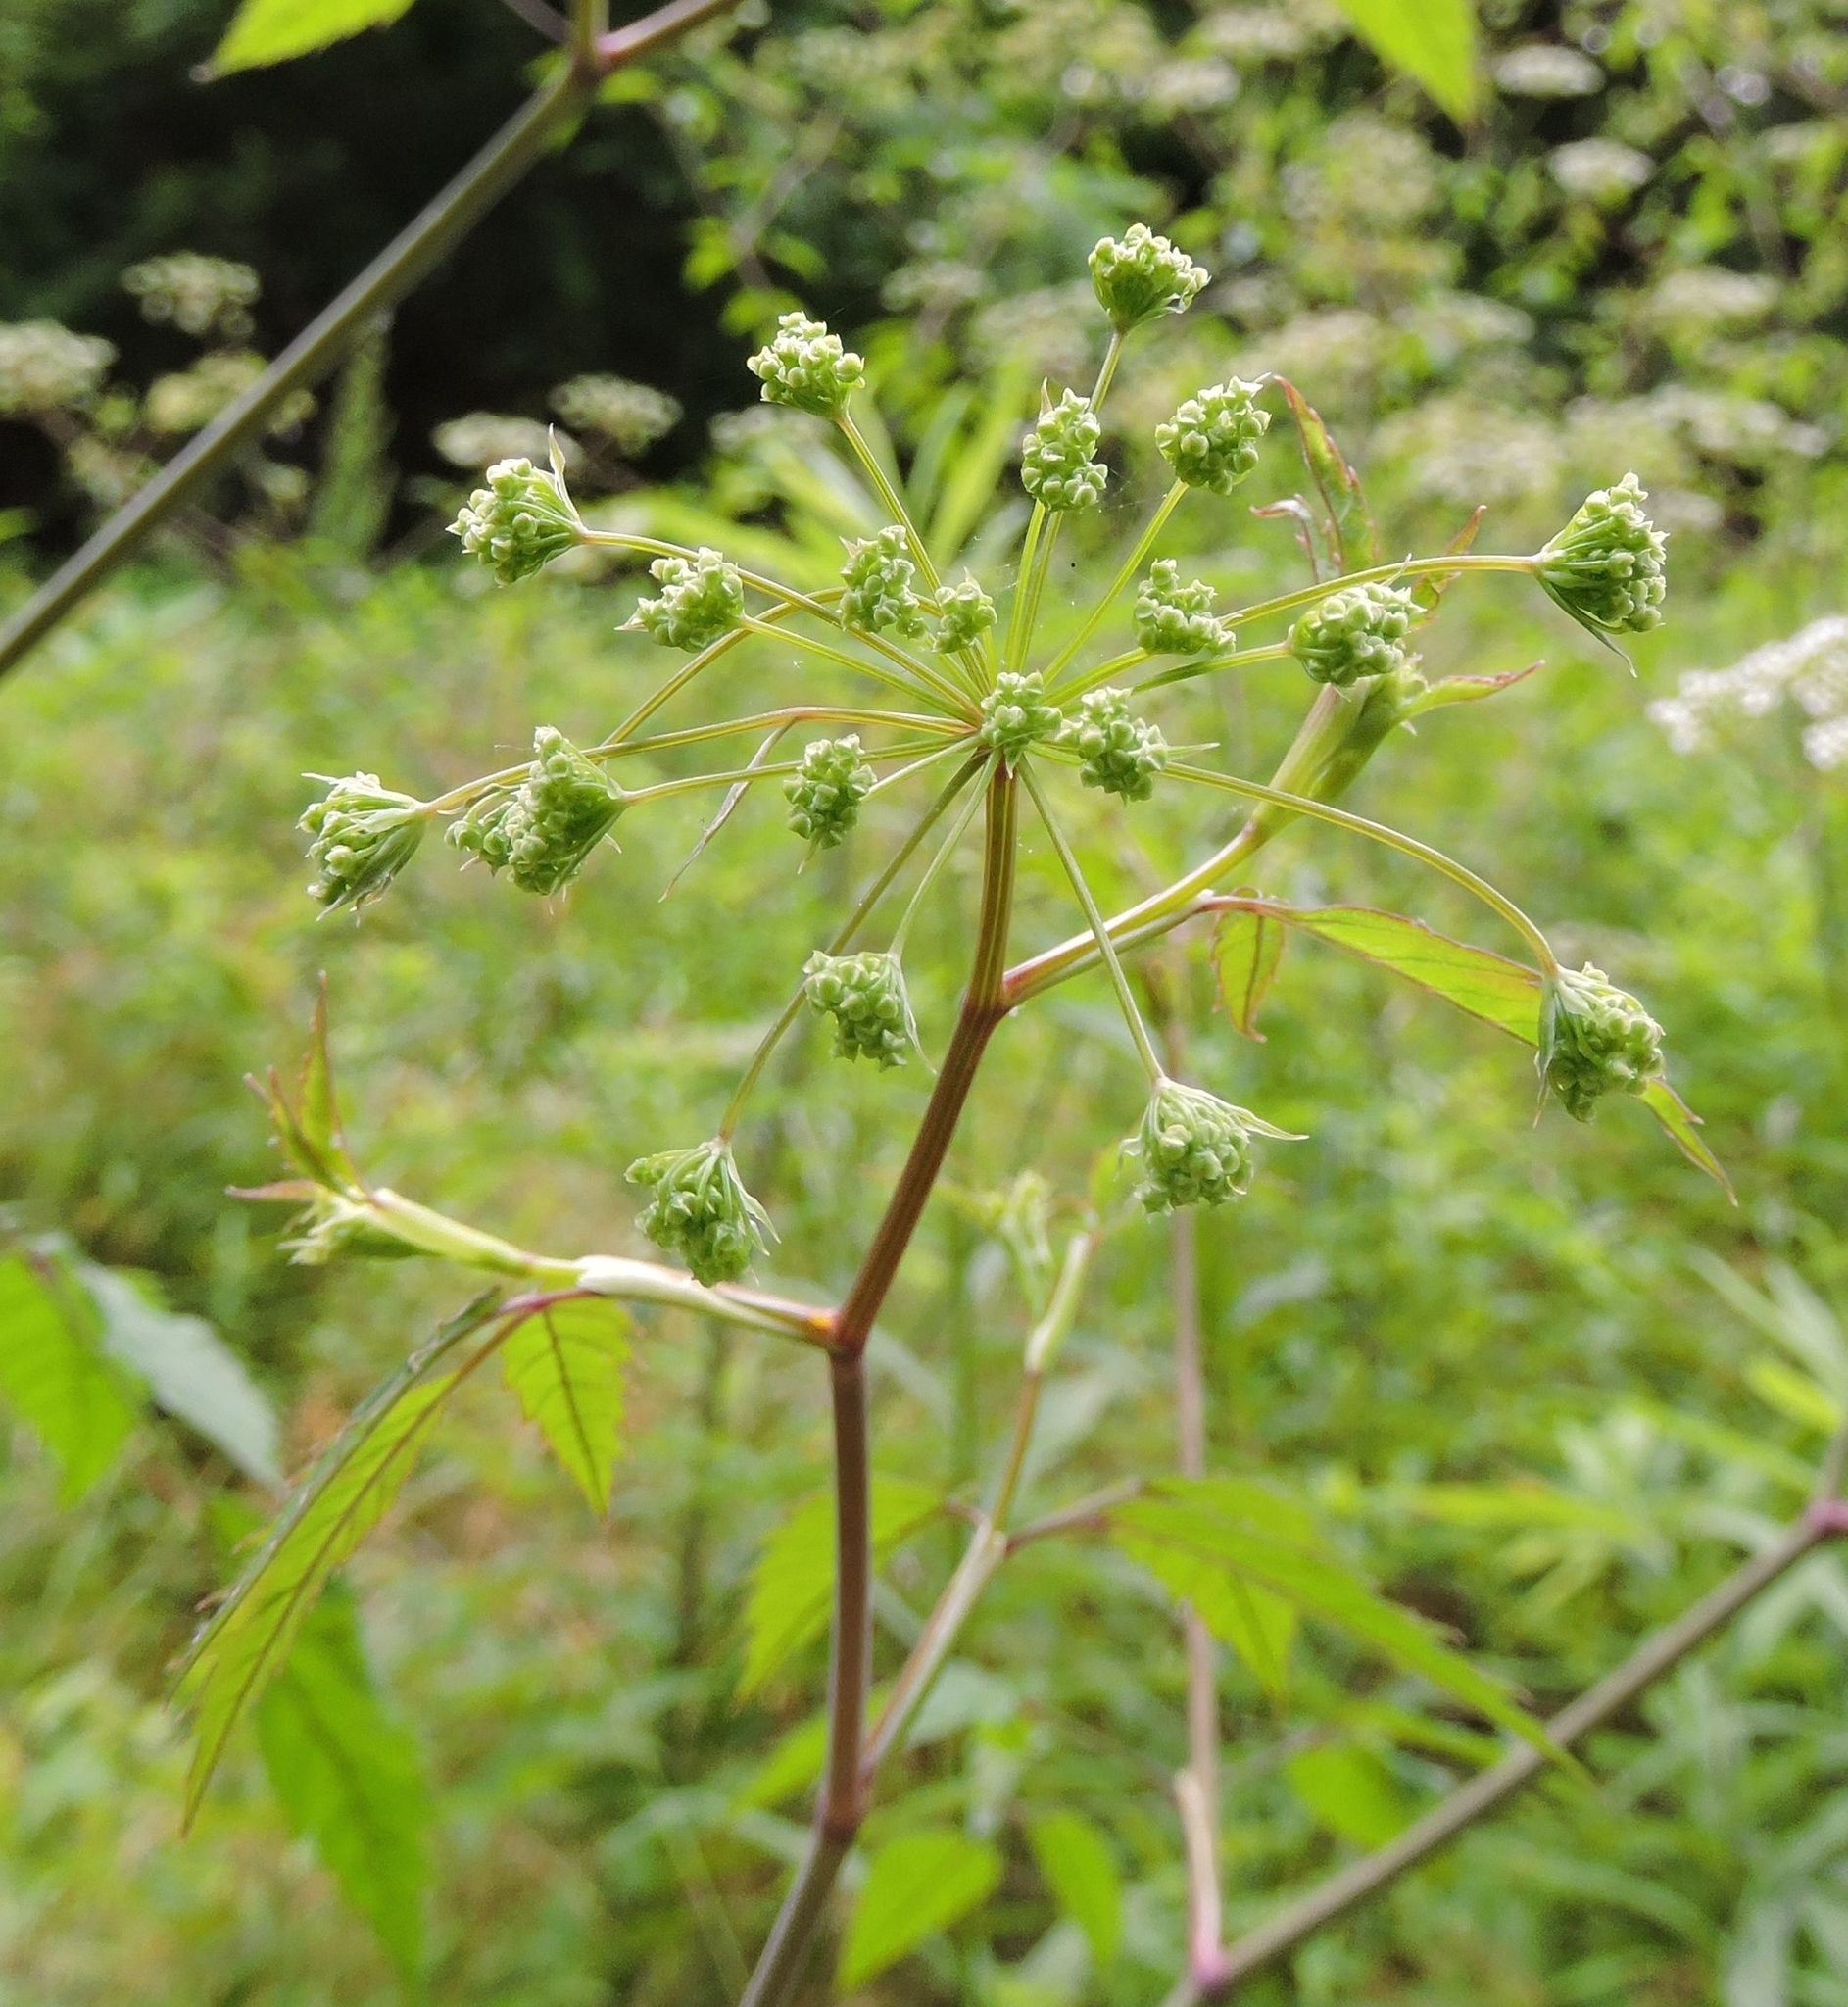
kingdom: Plantae
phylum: Tracheophyta
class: Magnoliopsida
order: Apiales
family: Apiaceae
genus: Cicuta
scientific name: Cicuta maculata
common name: Spotted cowbane
